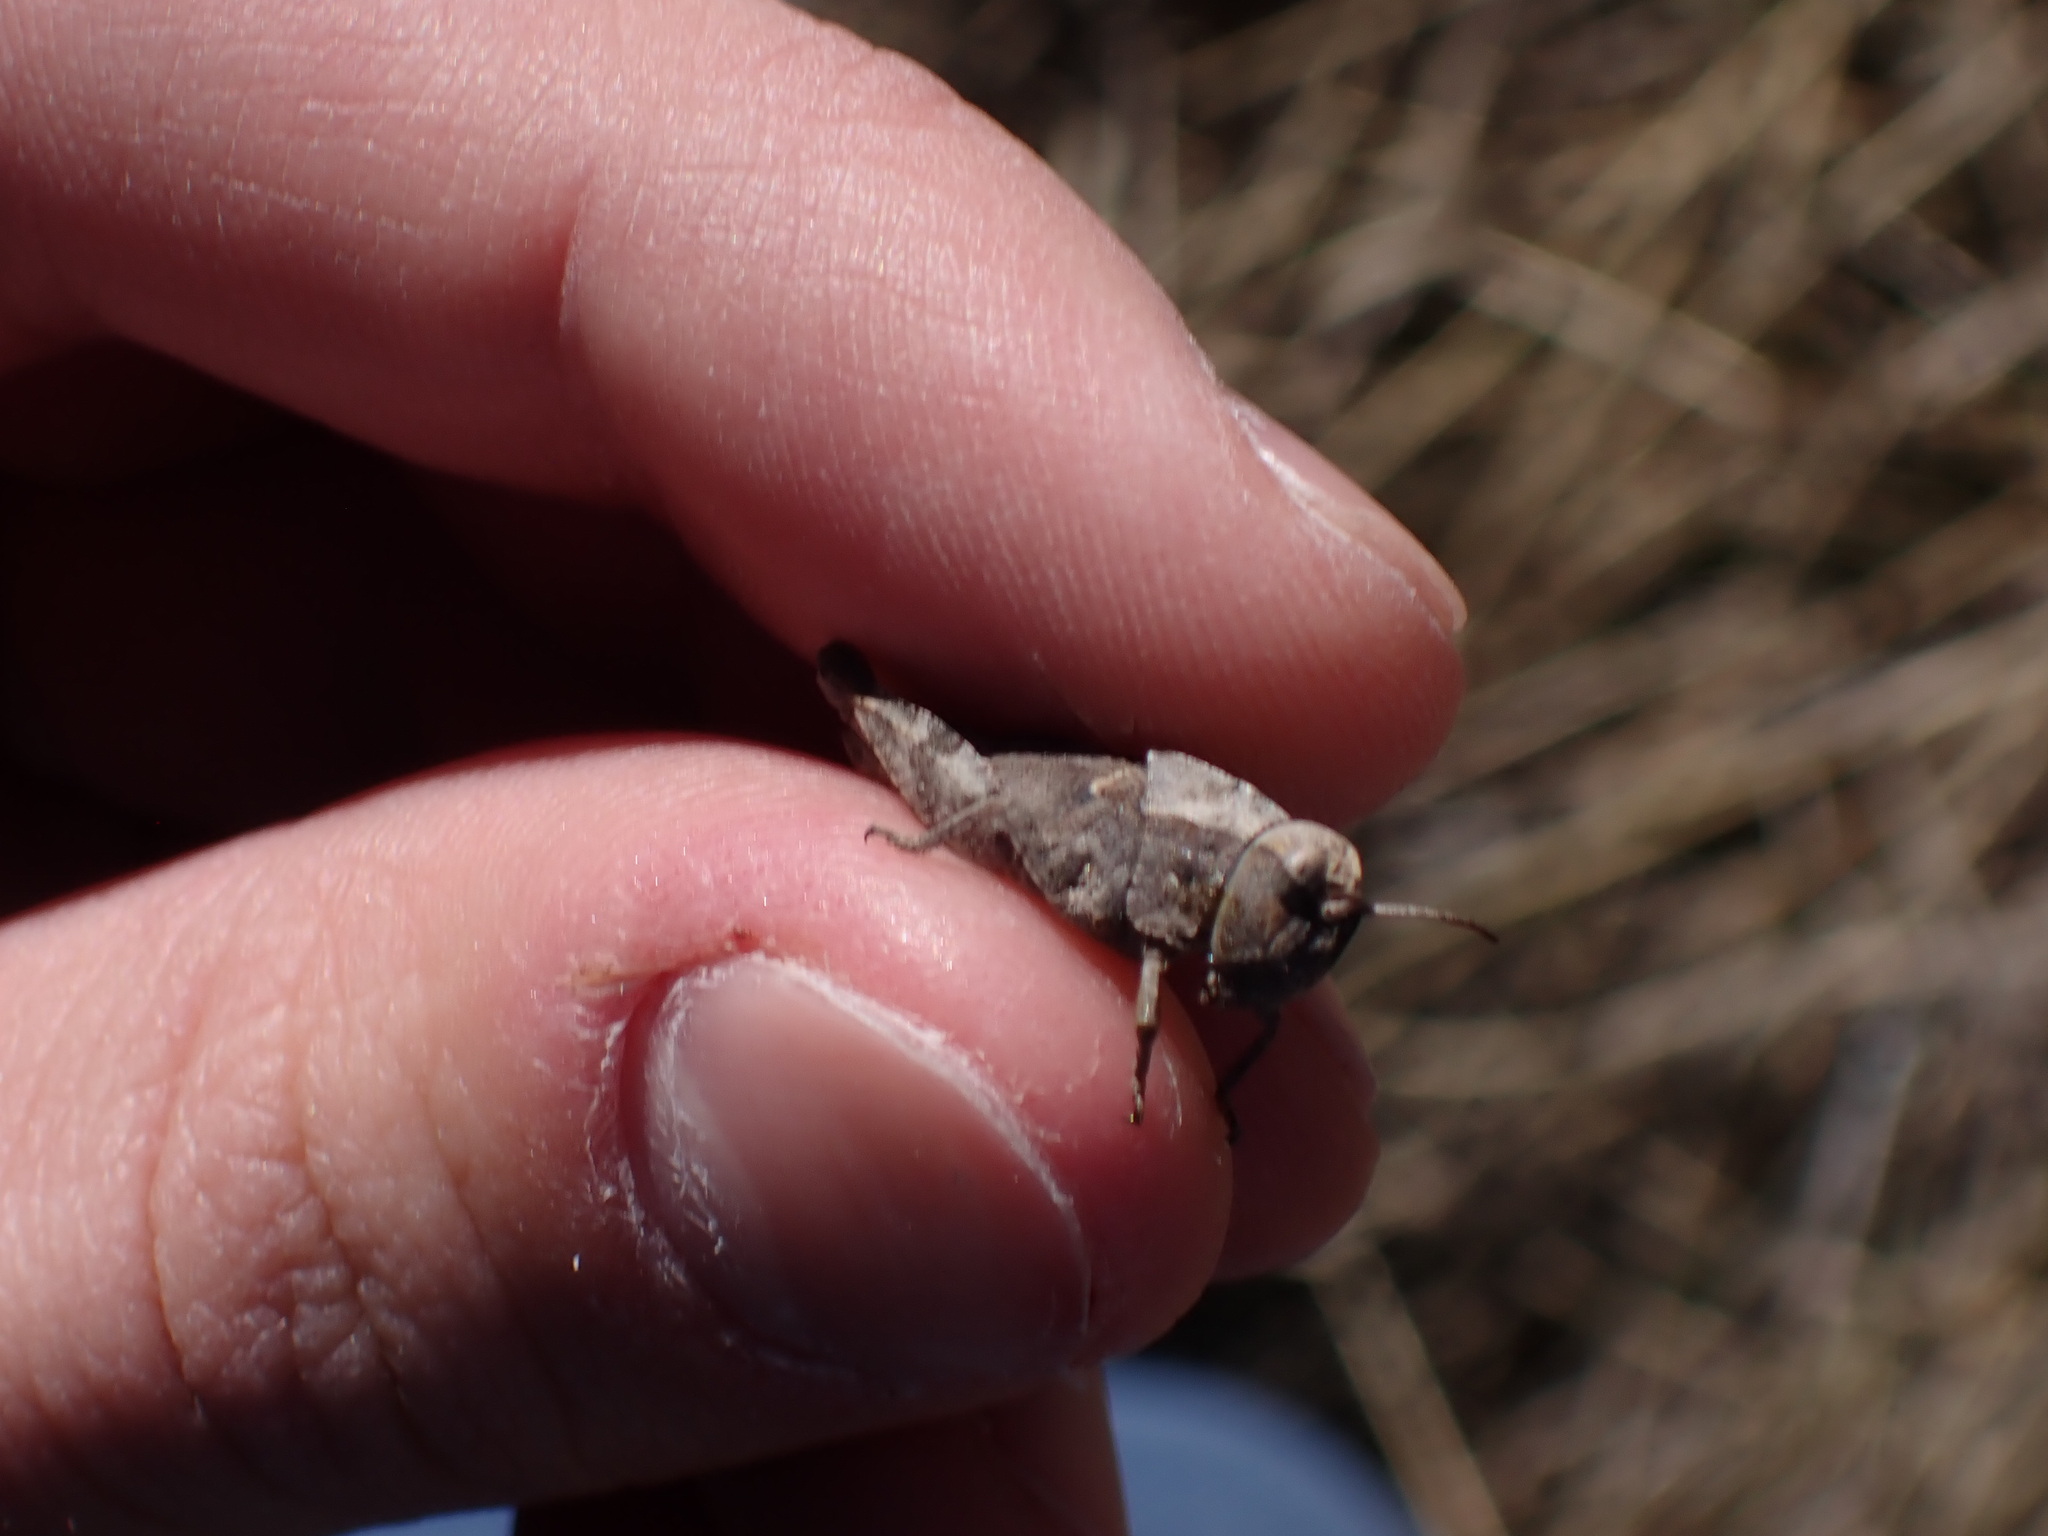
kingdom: Animalia
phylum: Arthropoda
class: Insecta
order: Orthoptera
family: Acrididae
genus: Arphia
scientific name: Arphia conspersa
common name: Speckle-winged rangeland grasshopper
